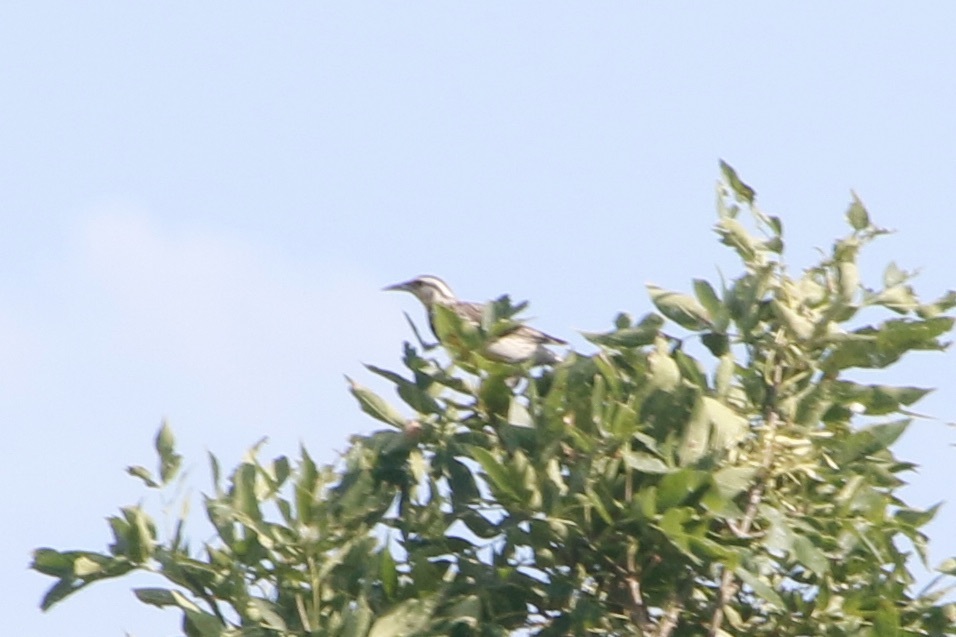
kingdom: Animalia
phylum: Chordata
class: Aves
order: Passeriformes
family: Icteridae
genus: Sturnella
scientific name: Sturnella neglecta
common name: Western meadowlark
